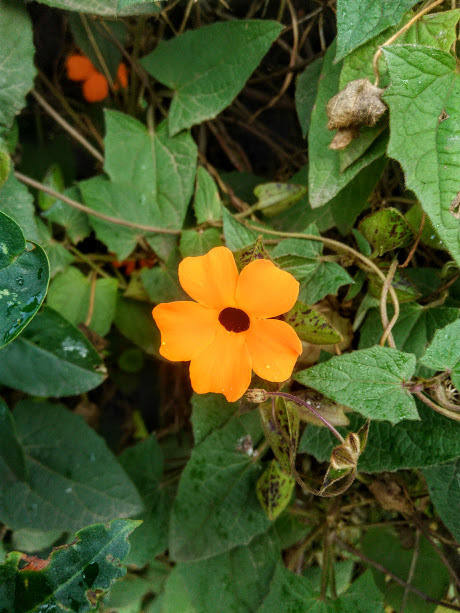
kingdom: Plantae
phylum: Tracheophyta
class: Magnoliopsida
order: Lamiales
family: Acanthaceae
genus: Thunbergia
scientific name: Thunbergia alata
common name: Blackeyed susan vine
